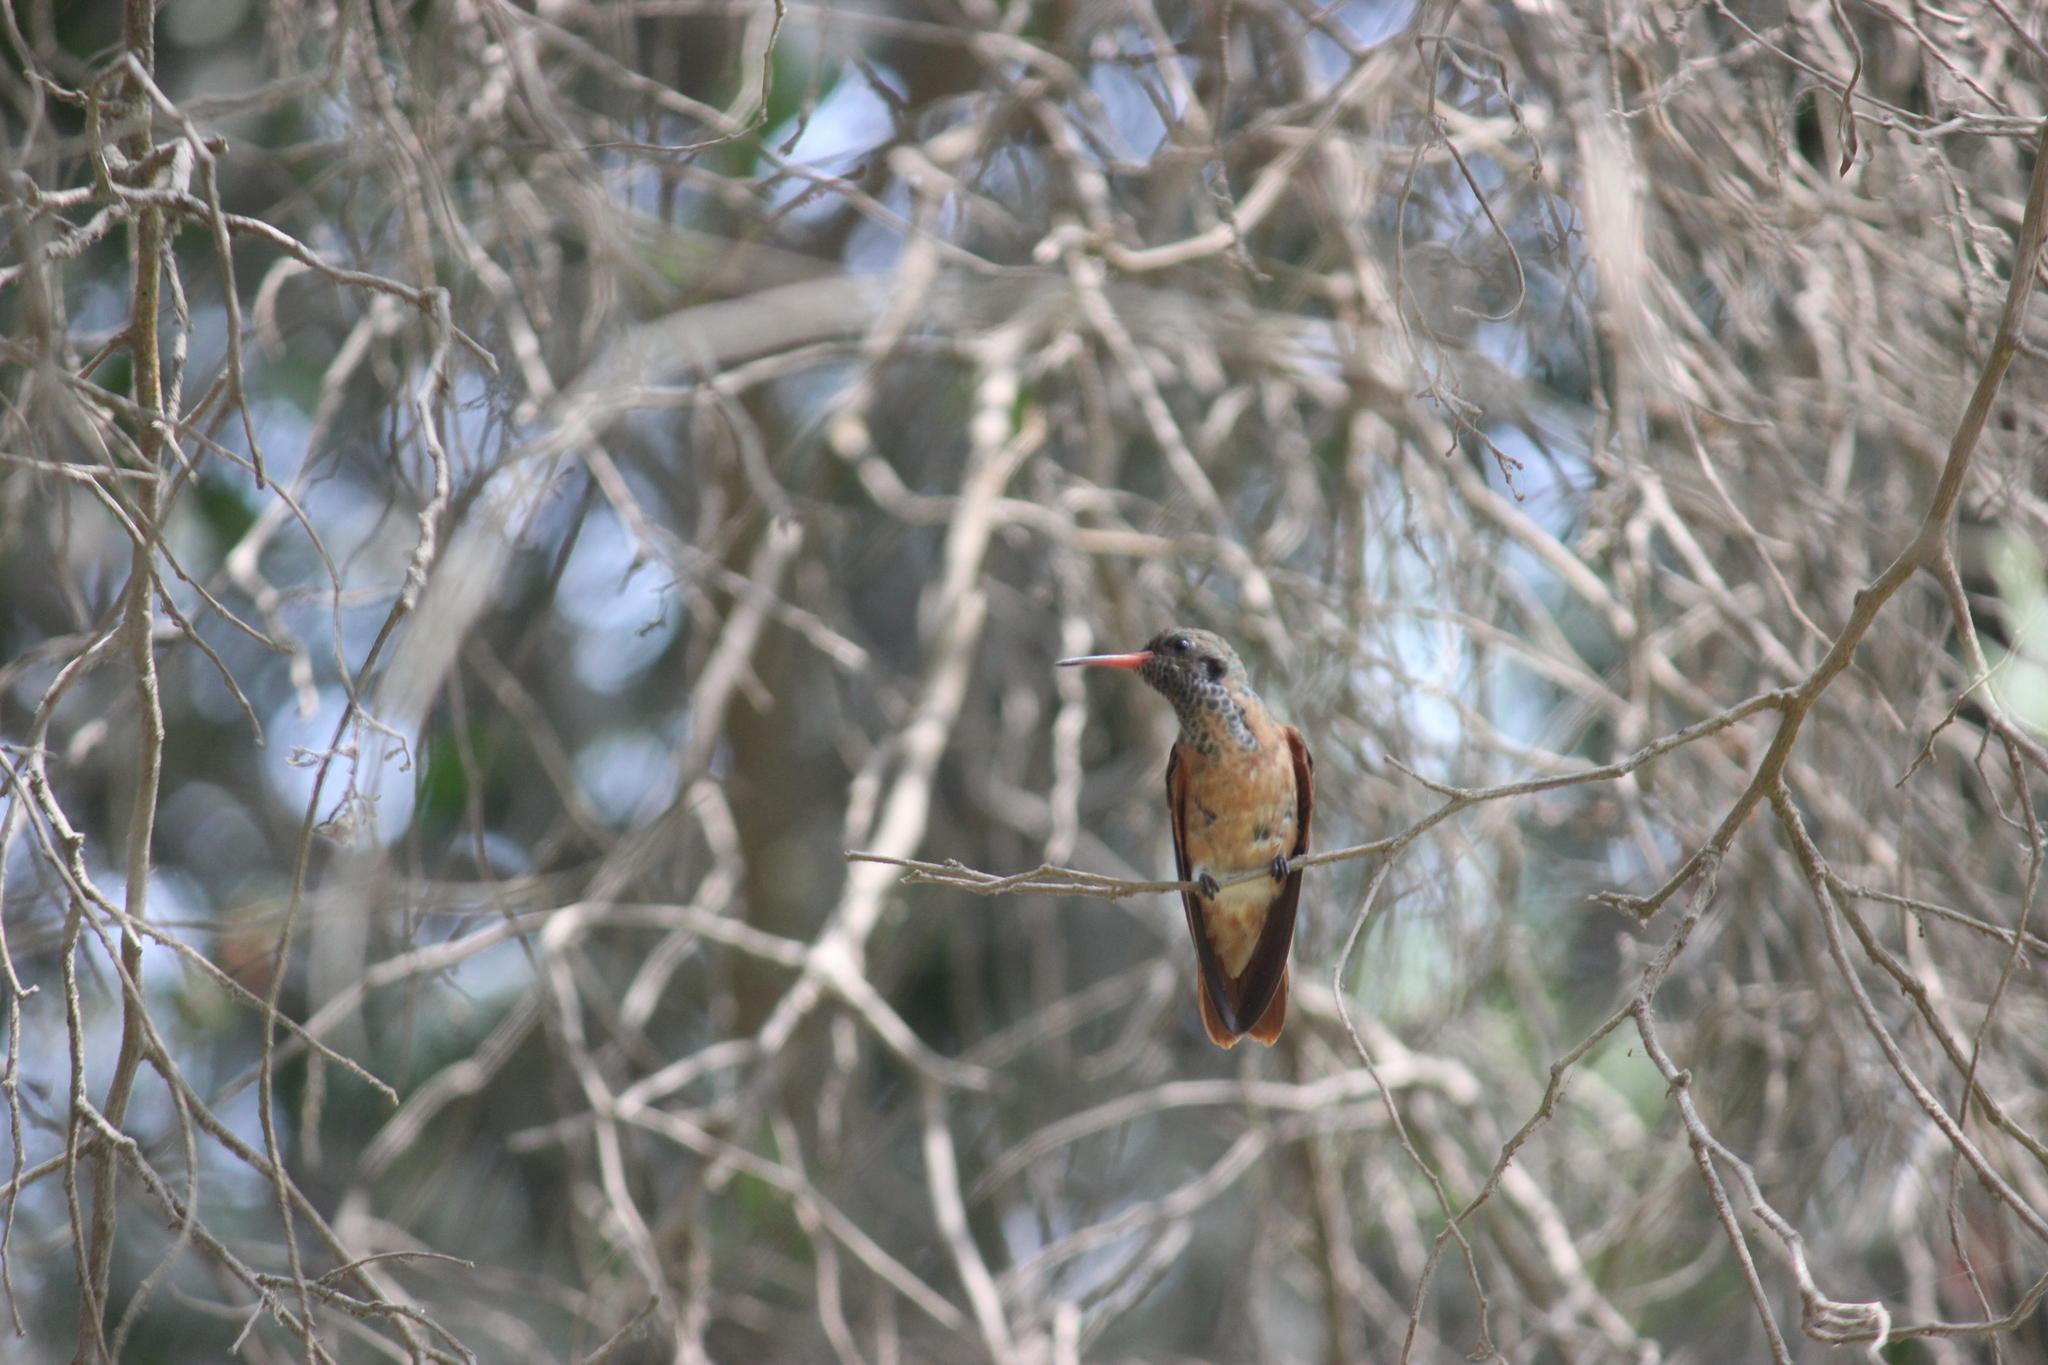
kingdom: Animalia
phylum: Chordata
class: Aves
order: Apodiformes
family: Trochilidae
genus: Amazilis
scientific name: Amazilis amazilia
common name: Amazilia hummingbird
